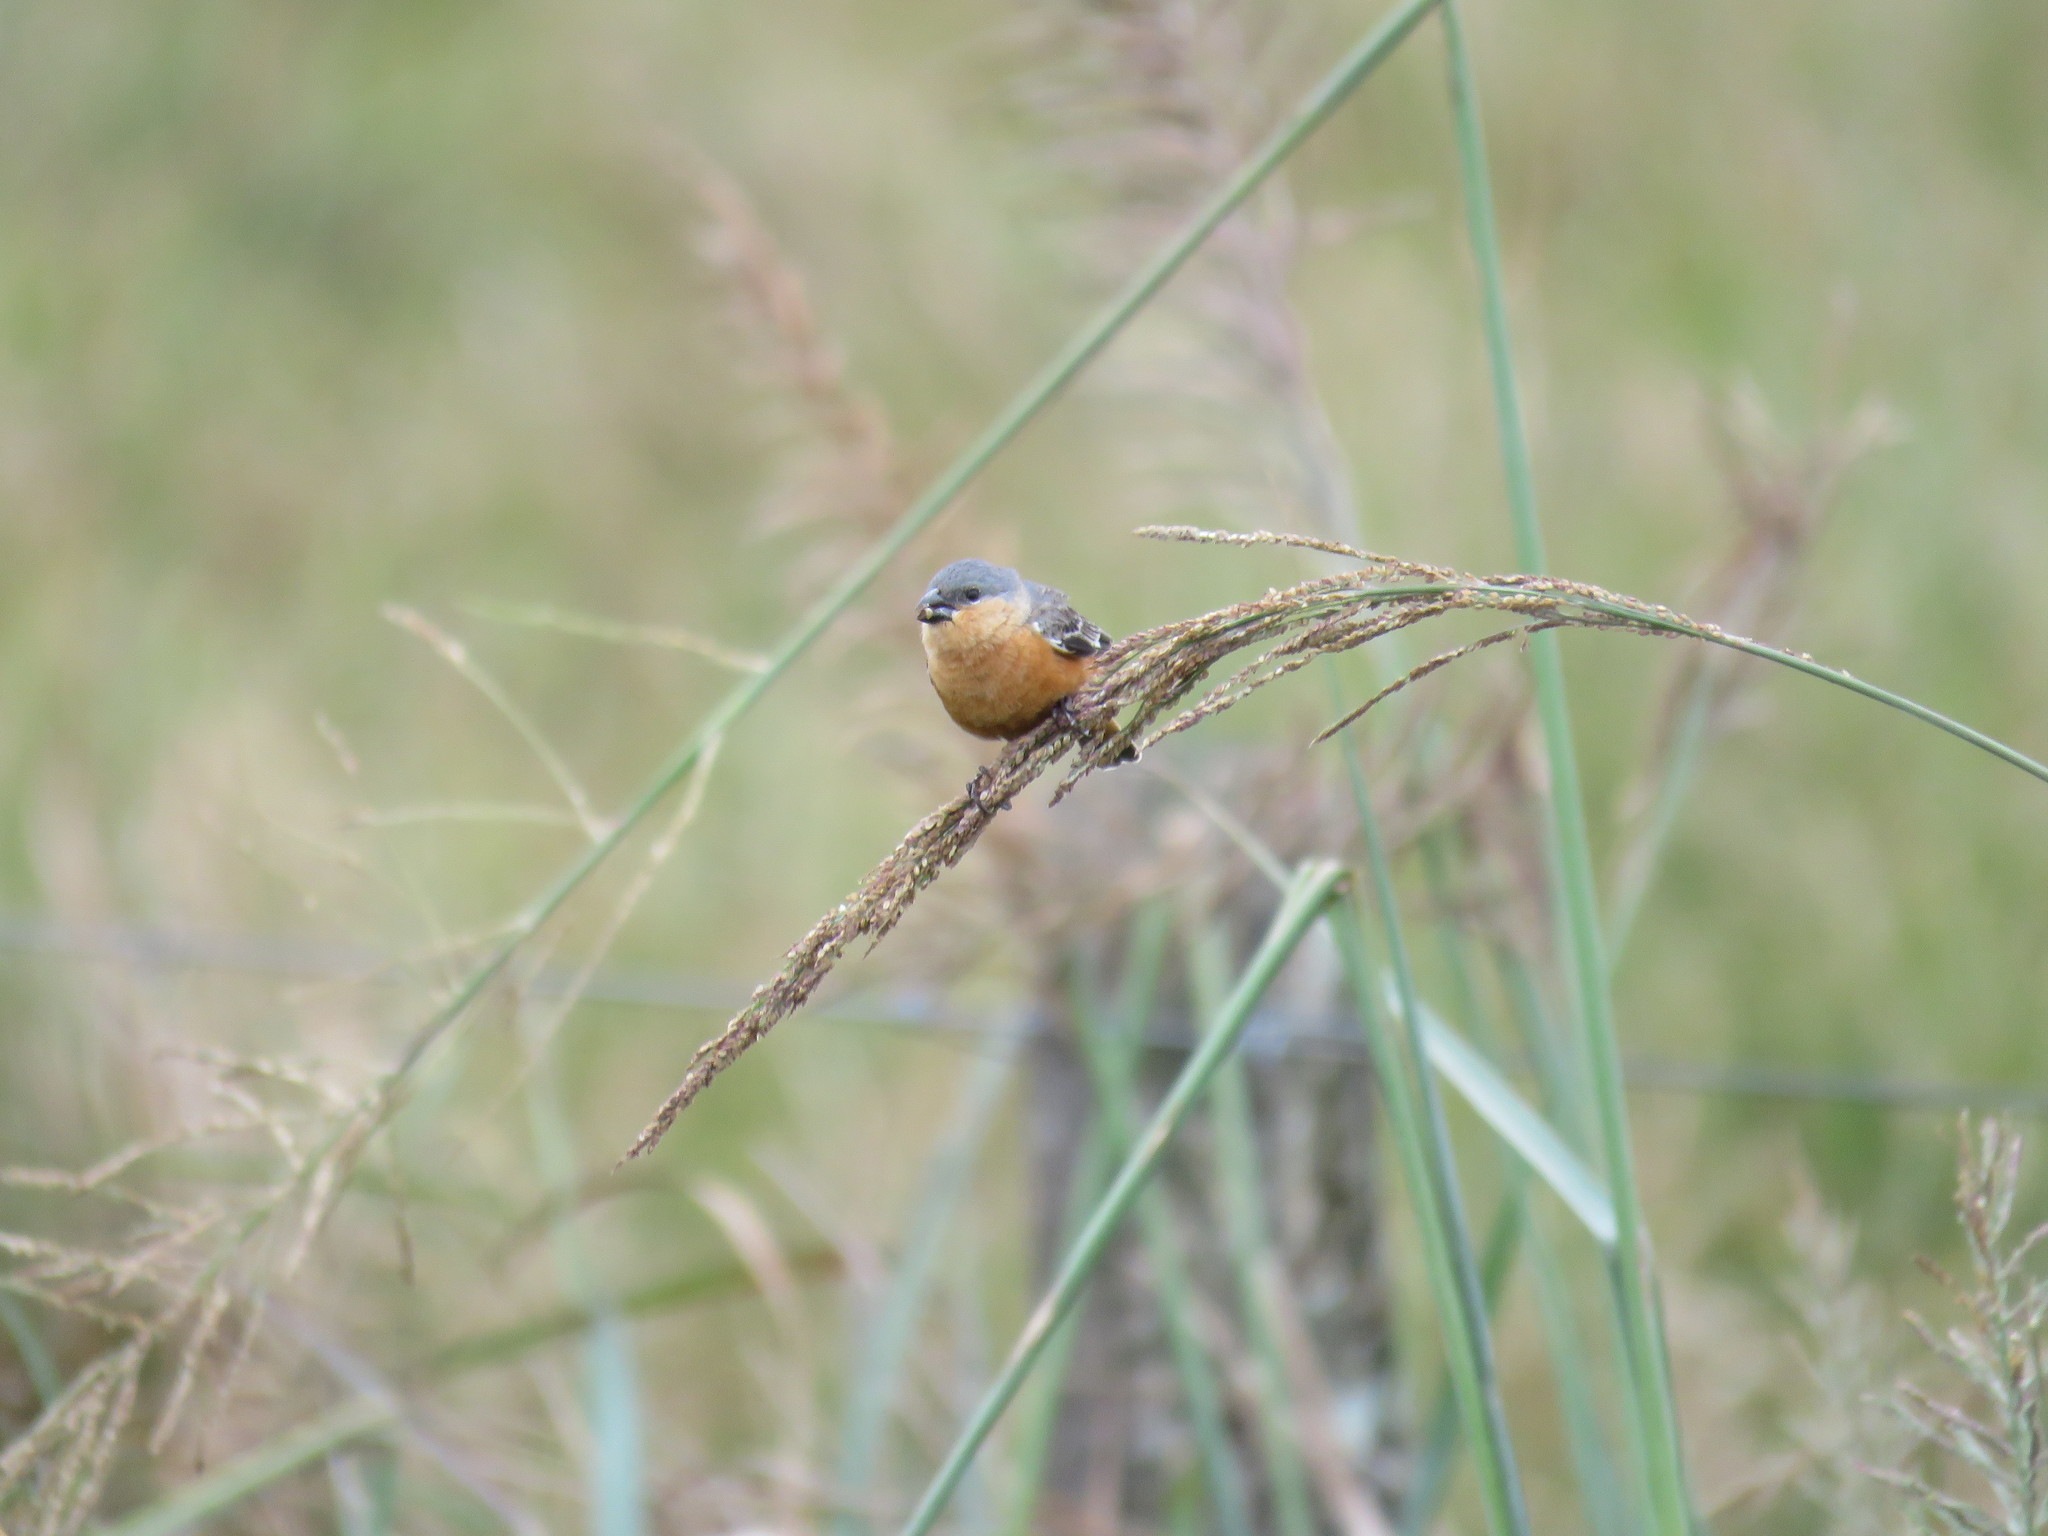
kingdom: Animalia
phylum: Chordata
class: Aves
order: Passeriformes
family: Thraupidae
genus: Sporophila
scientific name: Sporophila hypoxantha
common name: Tawny-bellied seedeater
